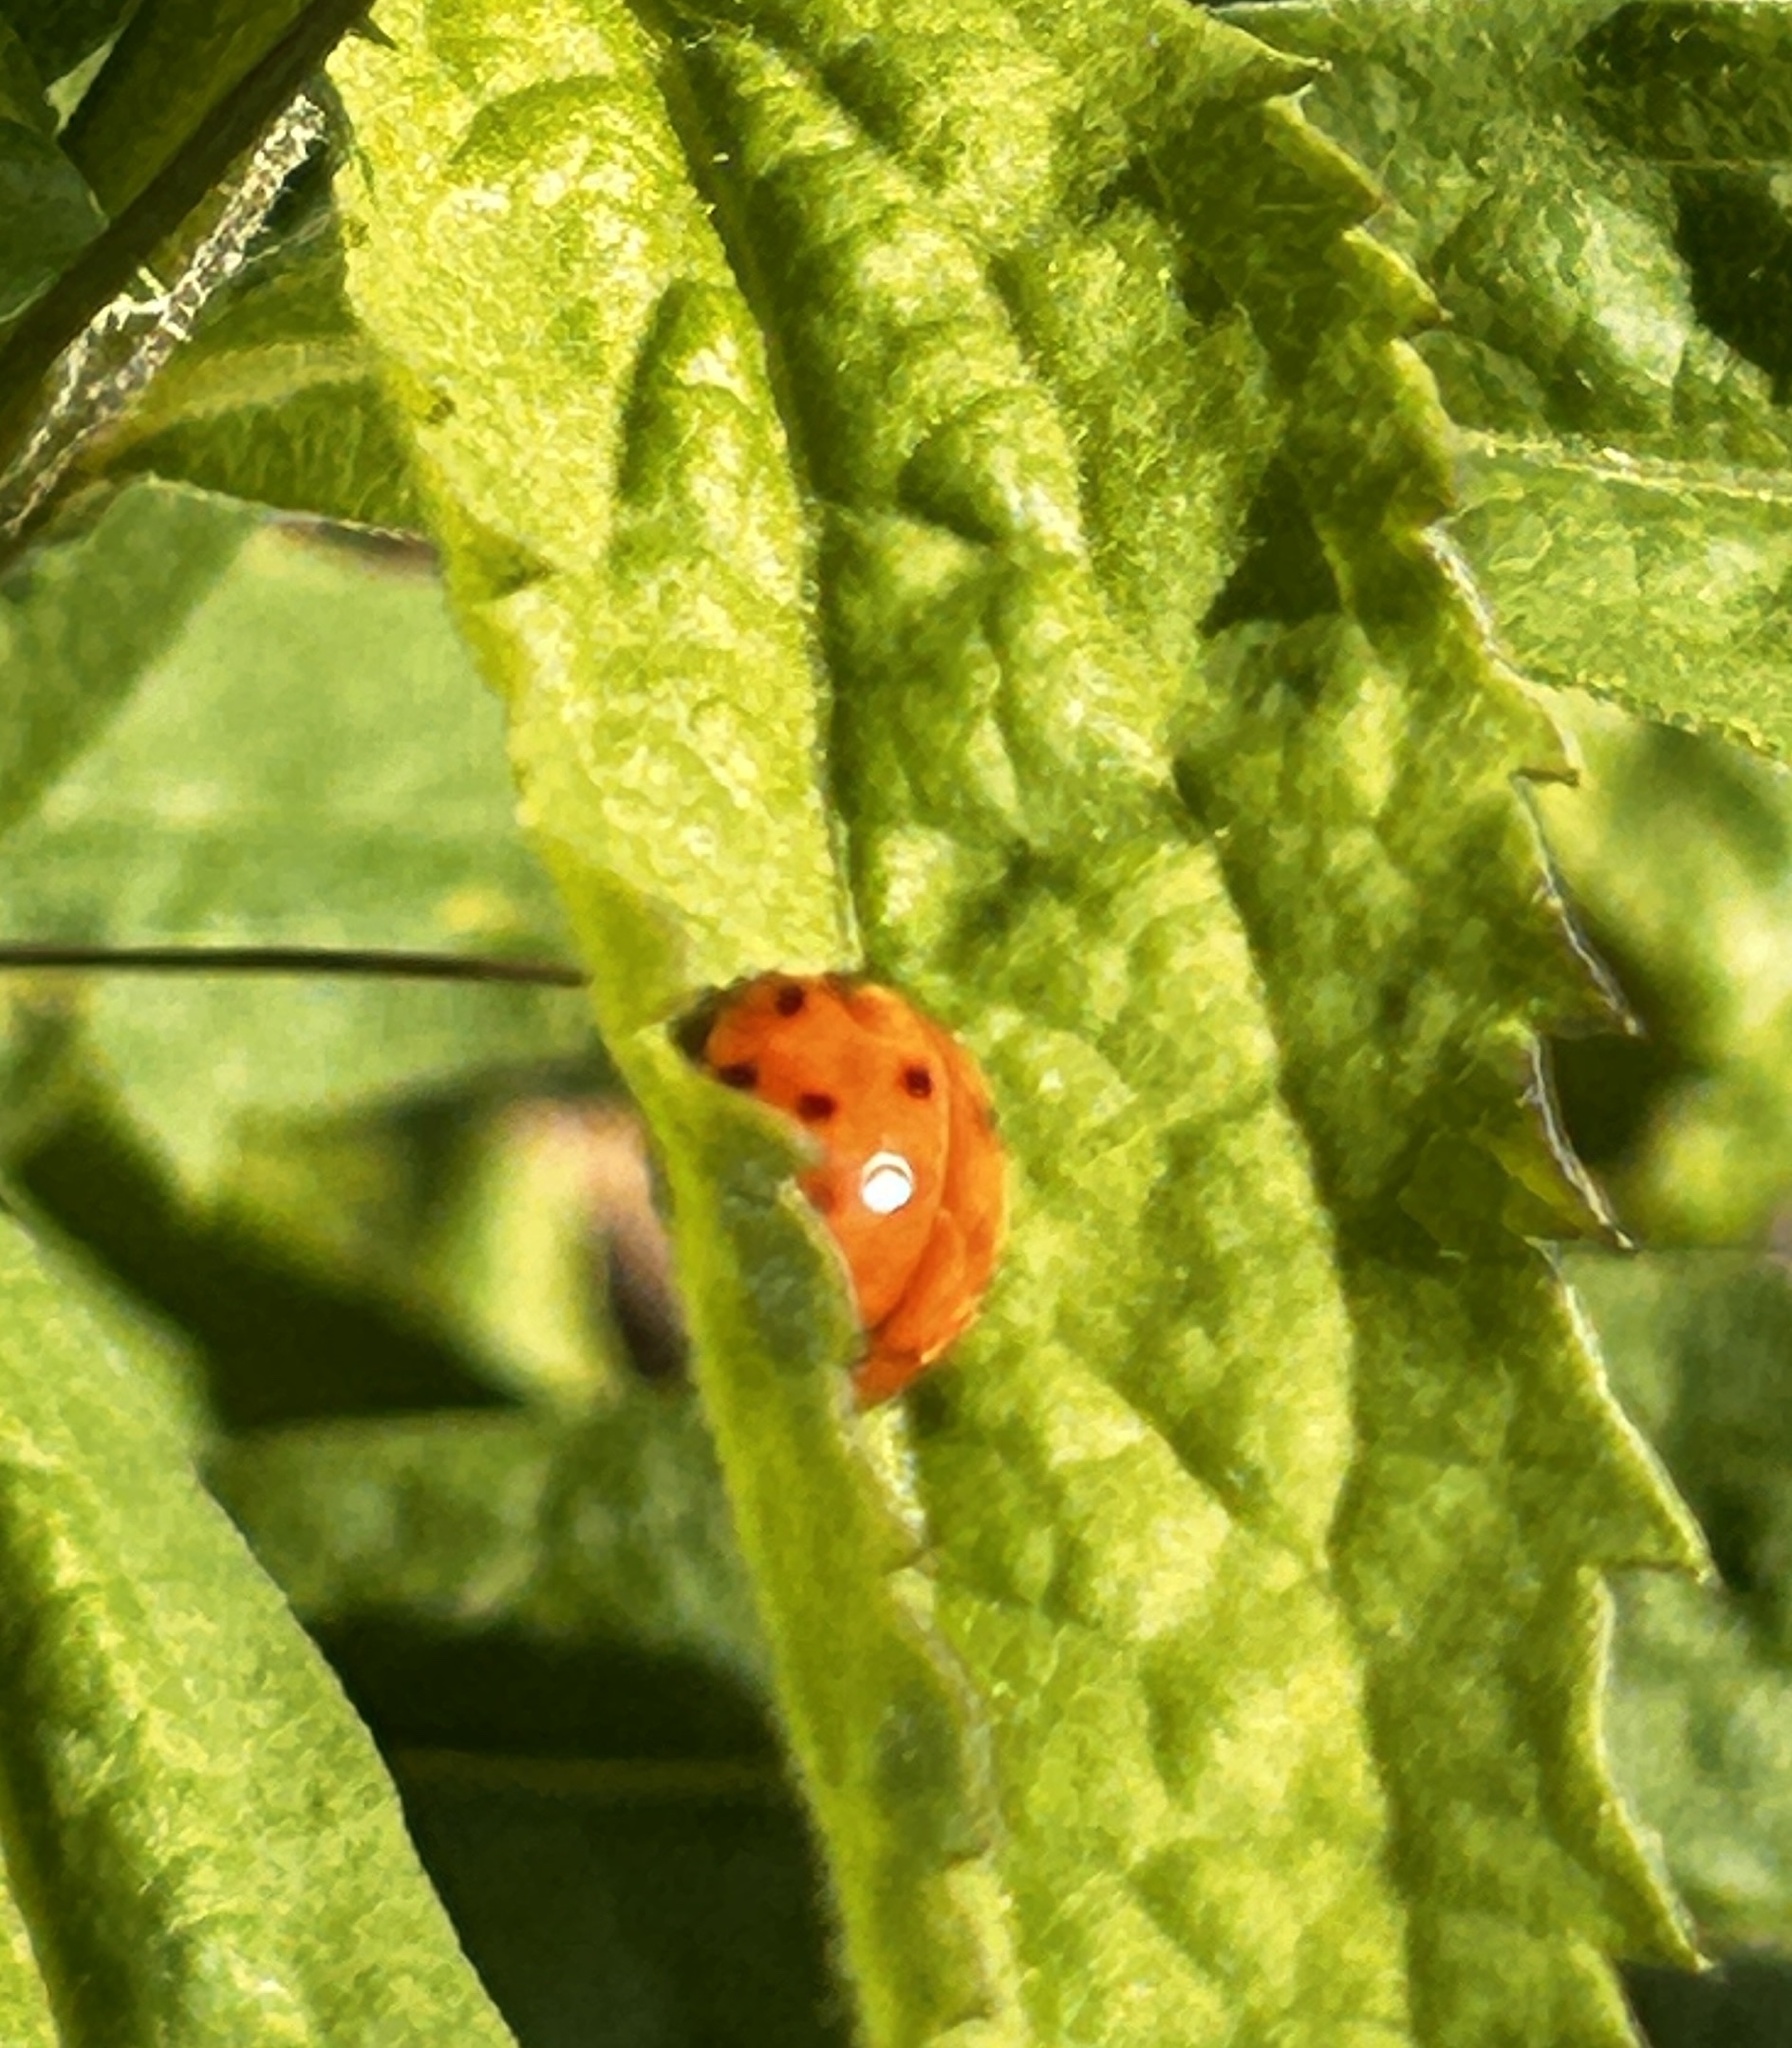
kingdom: Animalia
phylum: Arthropoda
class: Insecta
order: Coleoptera
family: Coccinellidae
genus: Harmonia
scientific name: Harmonia axyridis
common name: Harlequin ladybird
